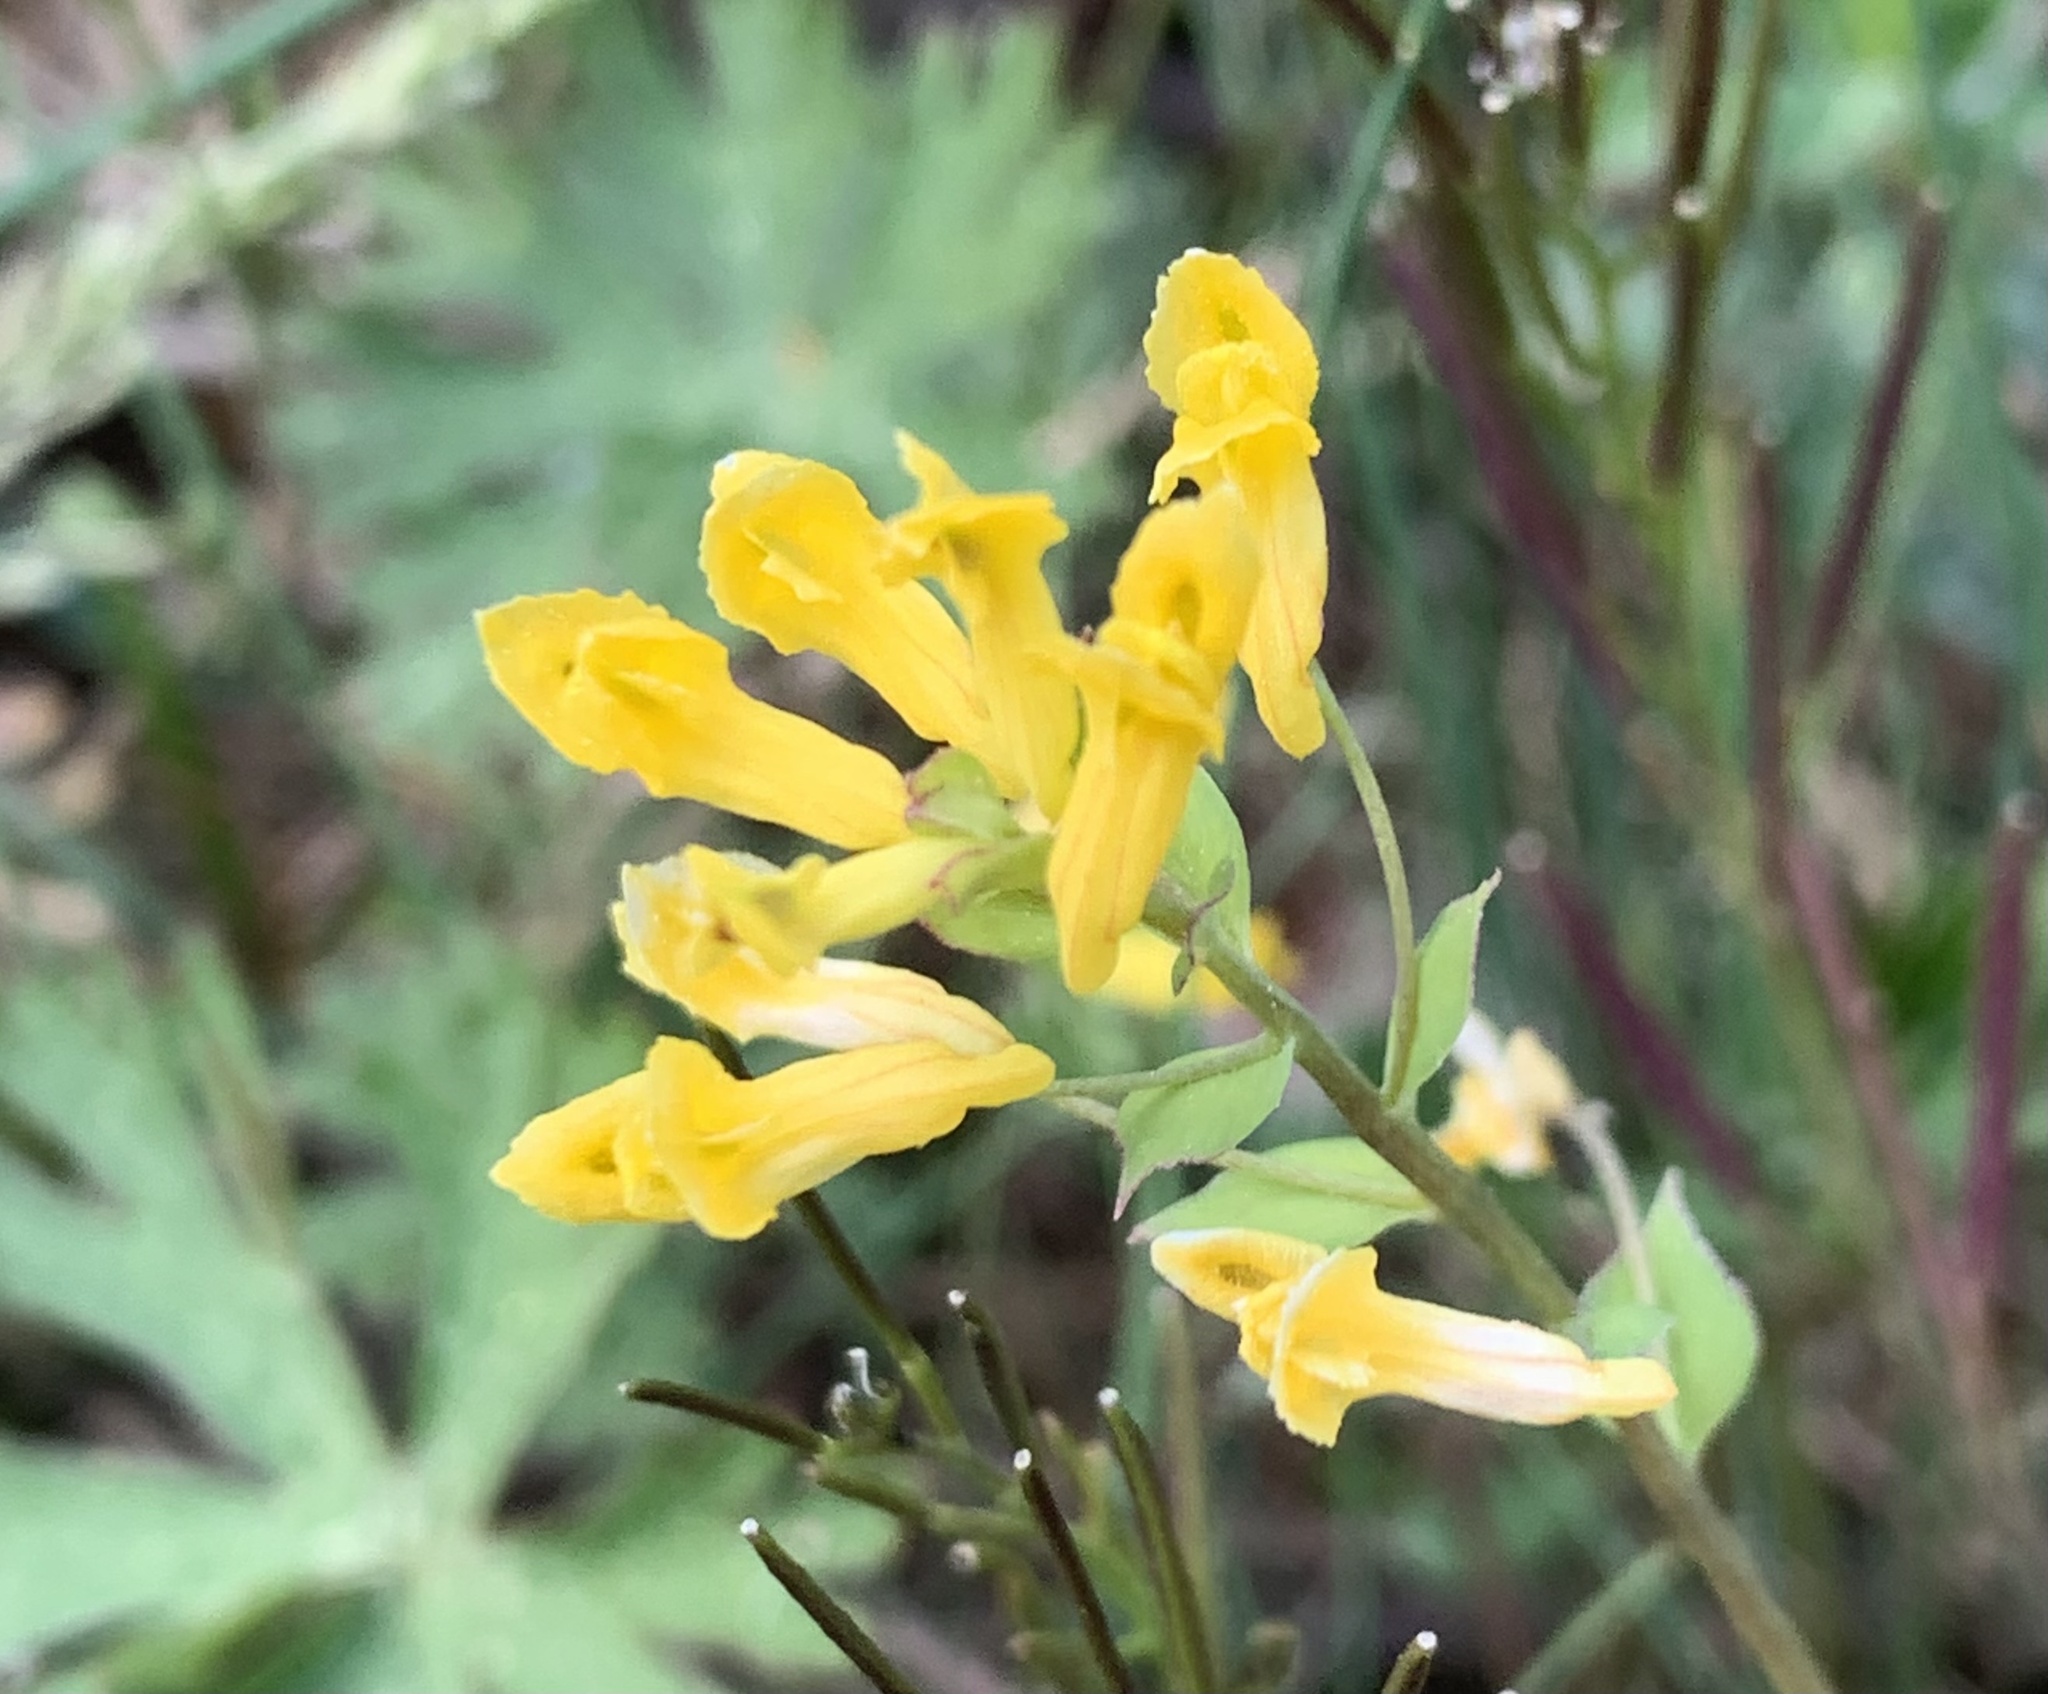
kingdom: Plantae
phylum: Tracheophyta
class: Magnoliopsida
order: Ranunculales
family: Papaveraceae
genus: Corydalis
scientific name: Corydalis flavula
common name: Yellow corydalis
